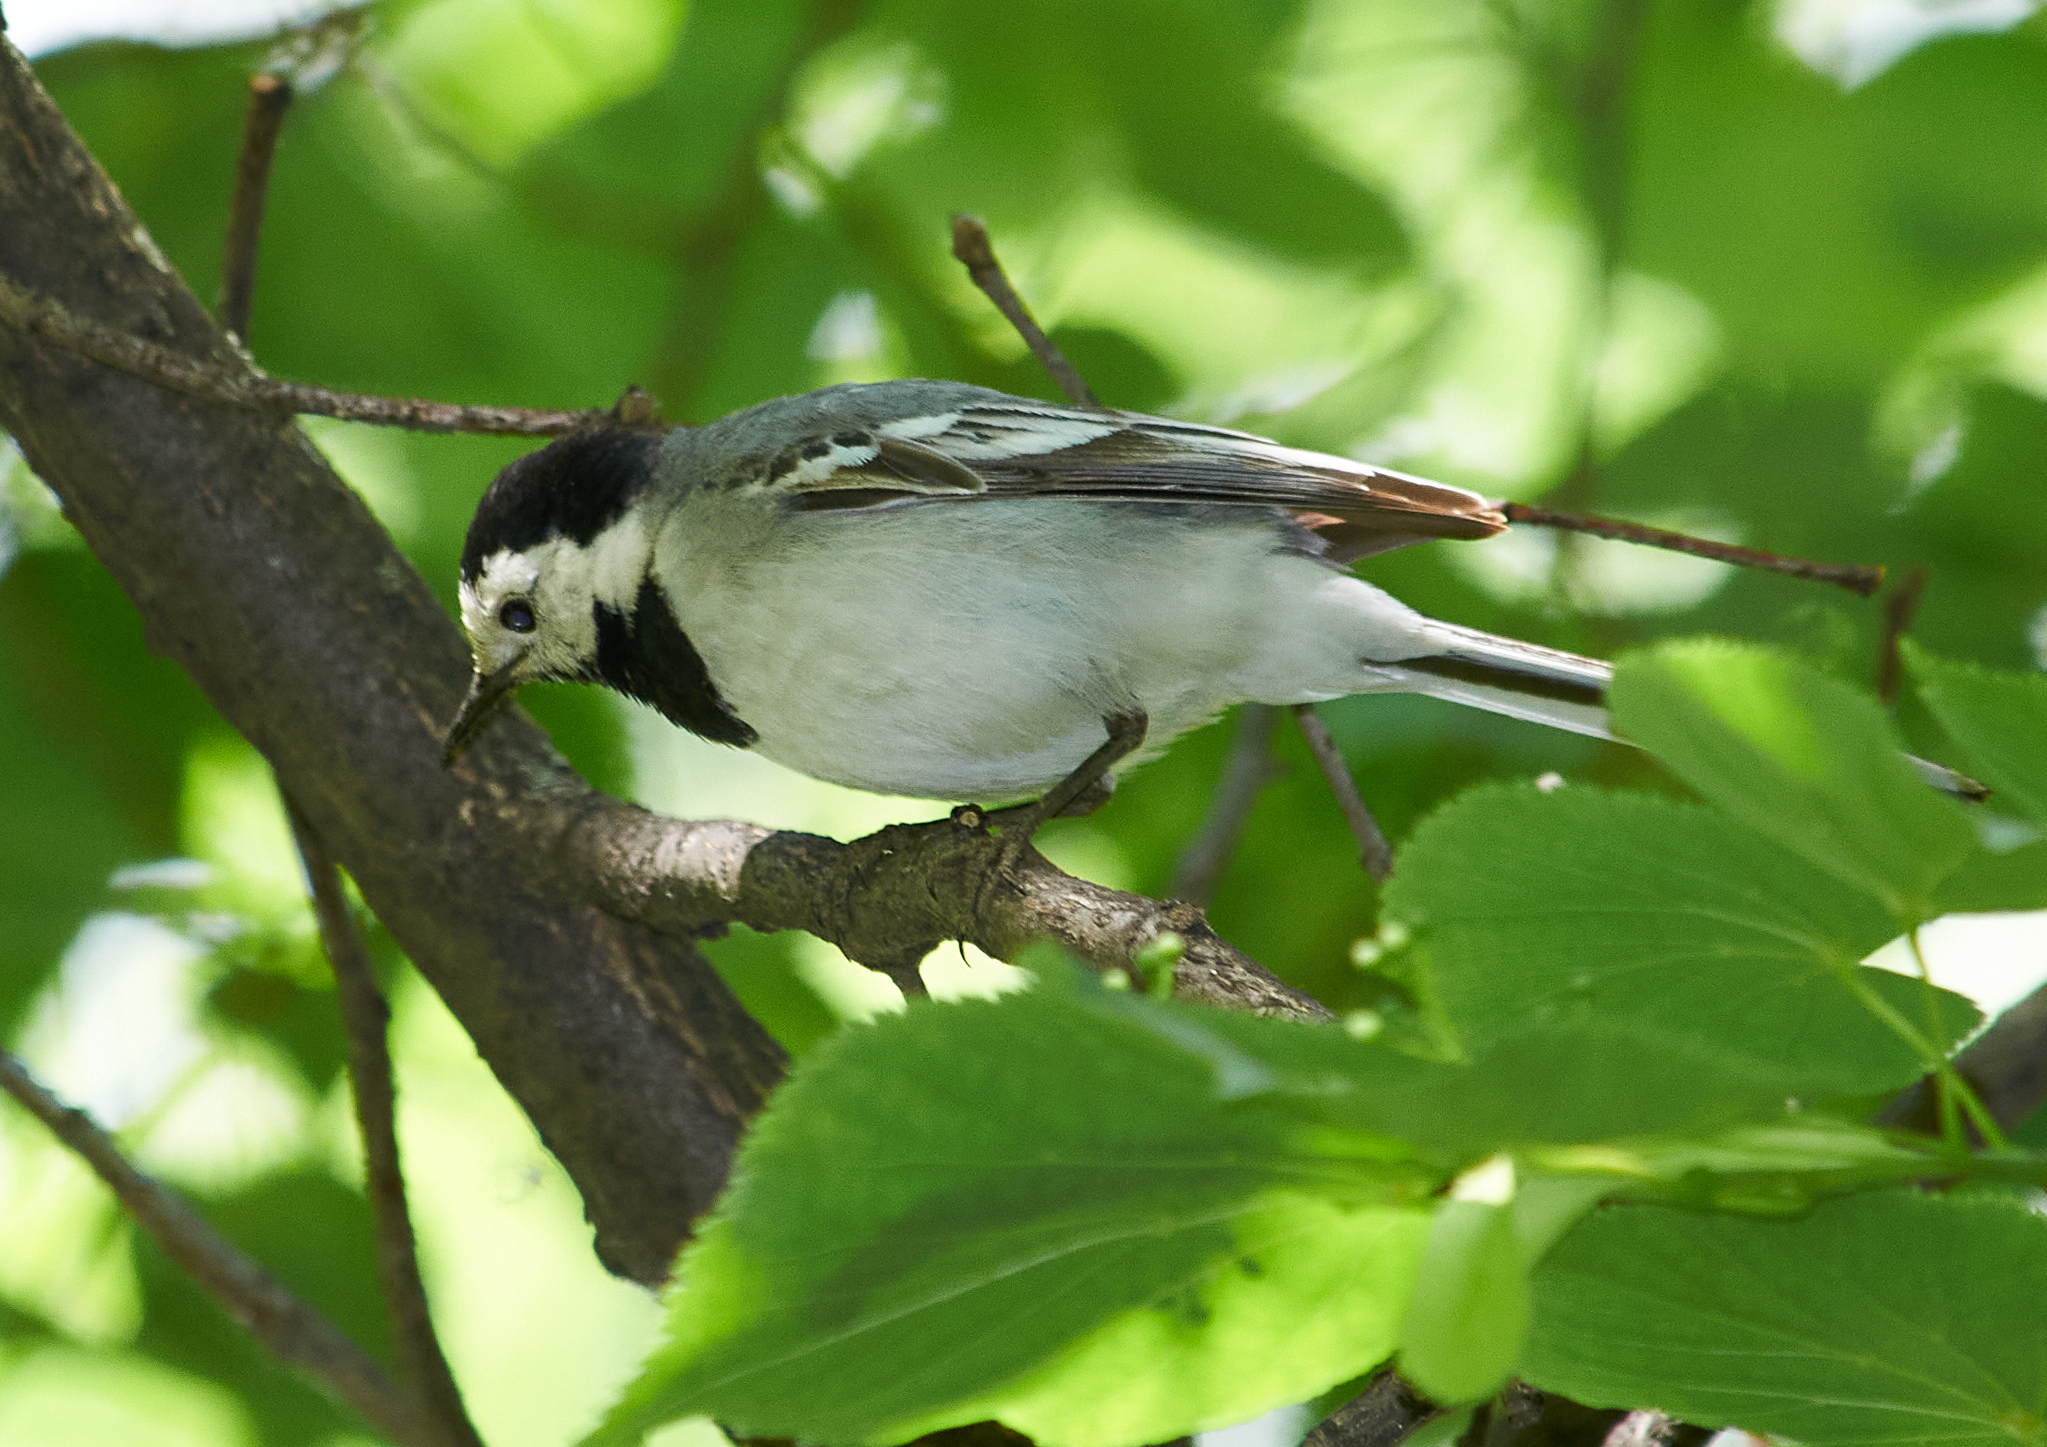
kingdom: Animalia
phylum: Chordata
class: Aves
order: Passeriformes
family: Motacillidae
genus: Motacilla
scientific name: Motacilla alba
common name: White wagtail
